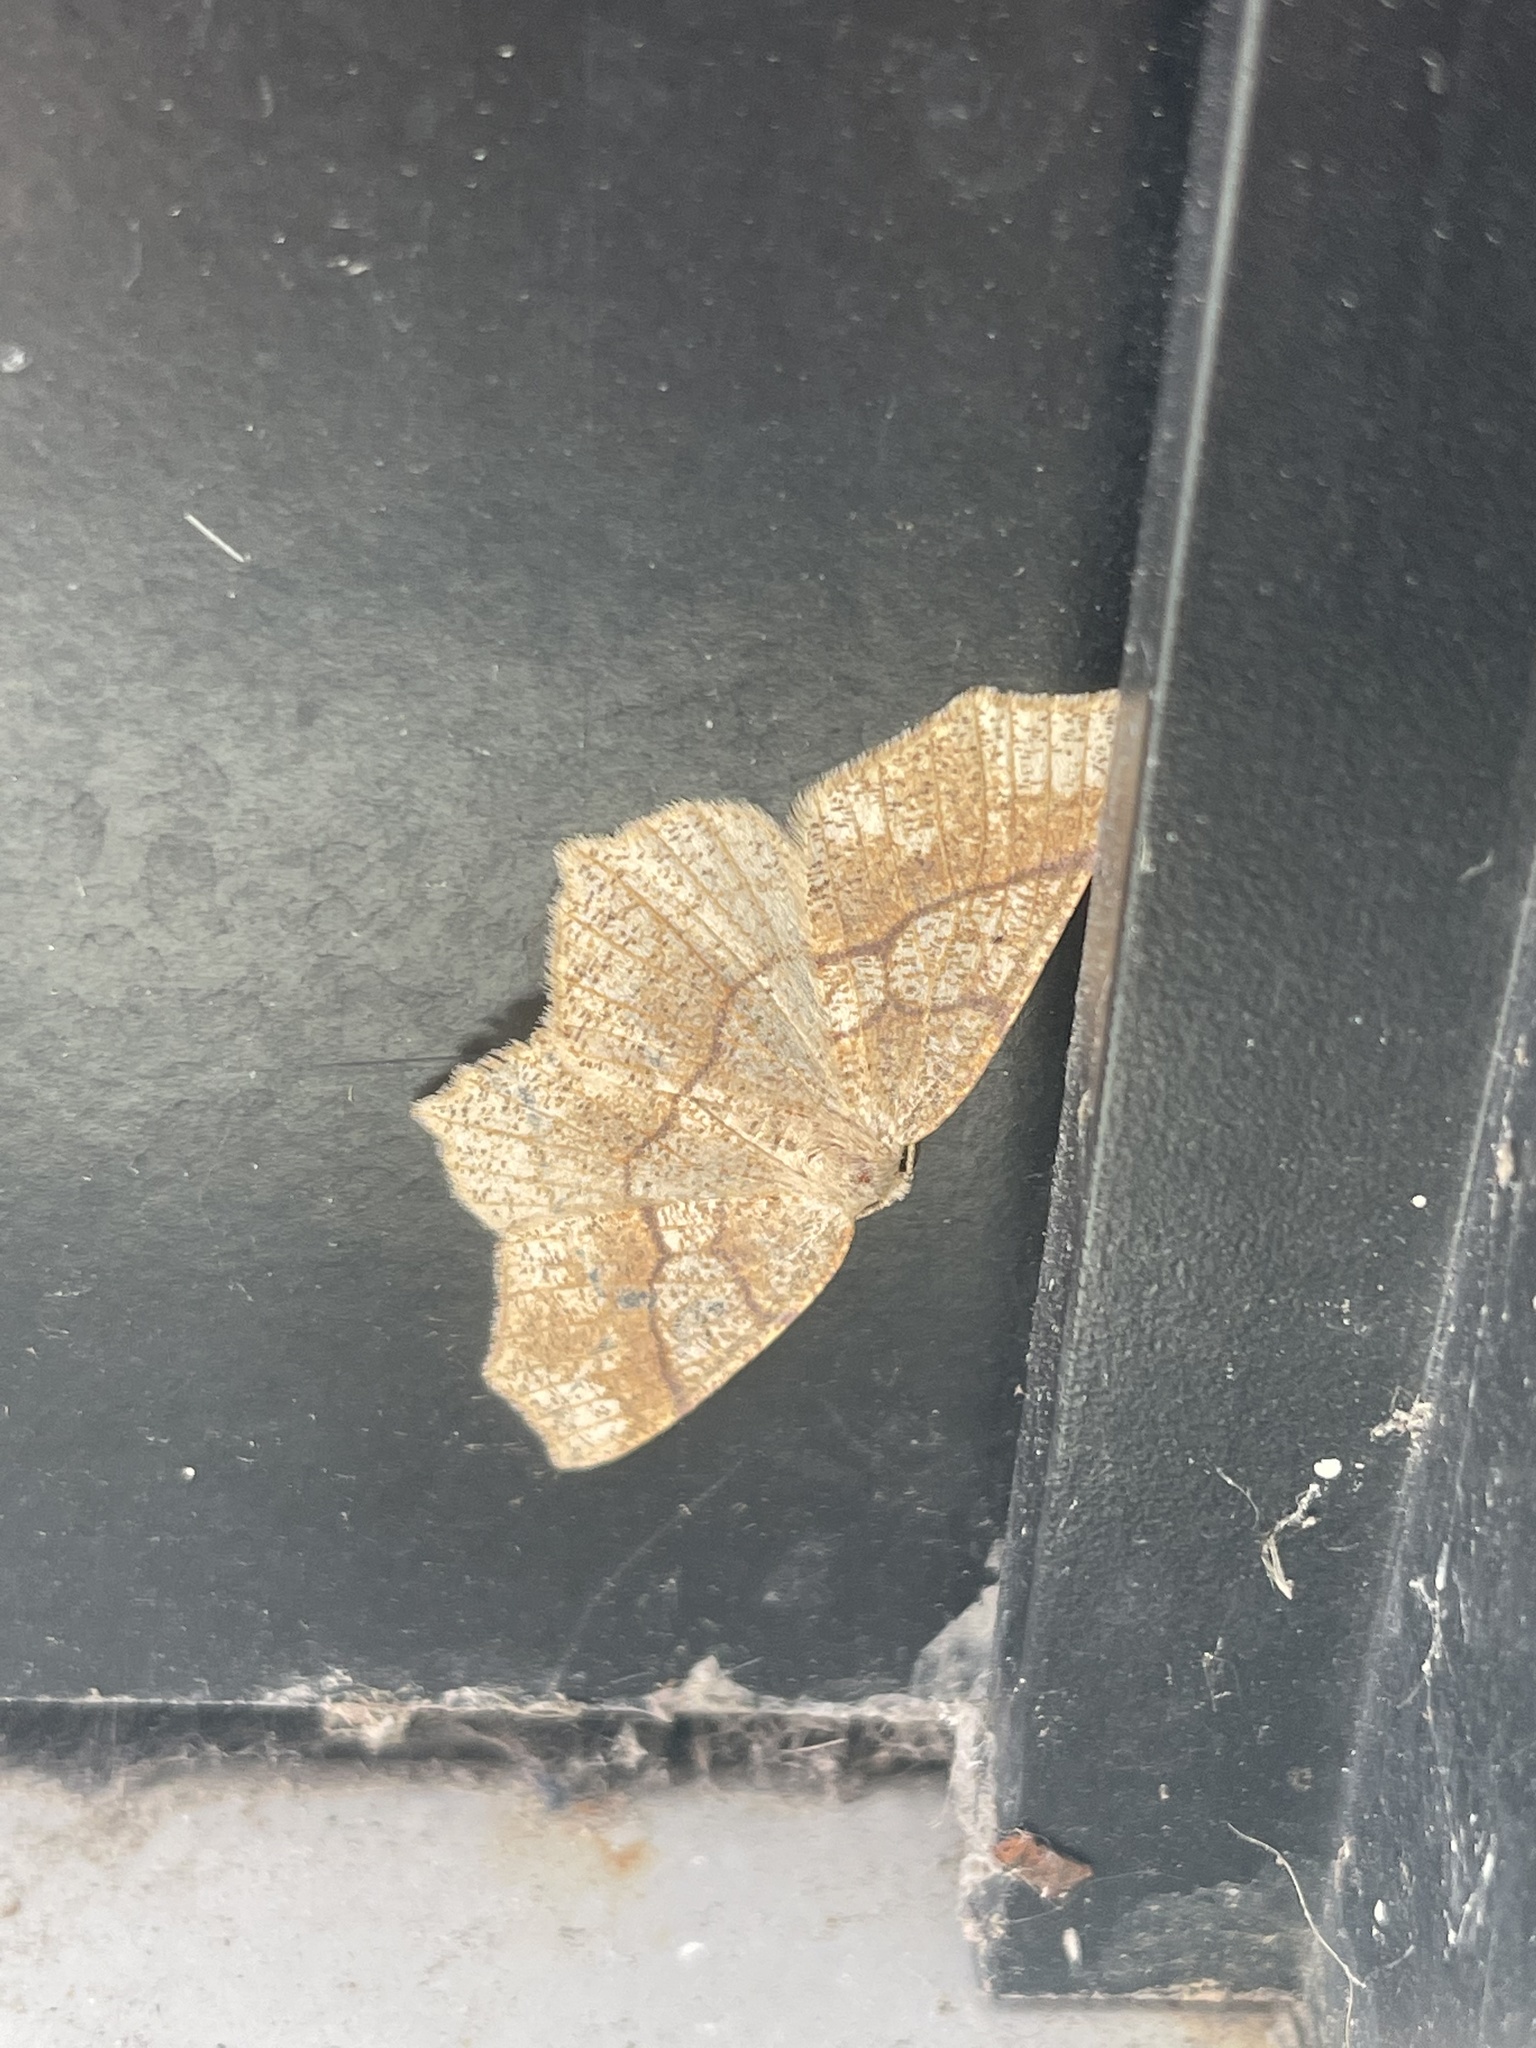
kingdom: Animalia
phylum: Arthropoda
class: Insecta
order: Lepidoptera
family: Geometridae
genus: Besma
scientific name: Besma quercivoraria
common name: Oak besma
